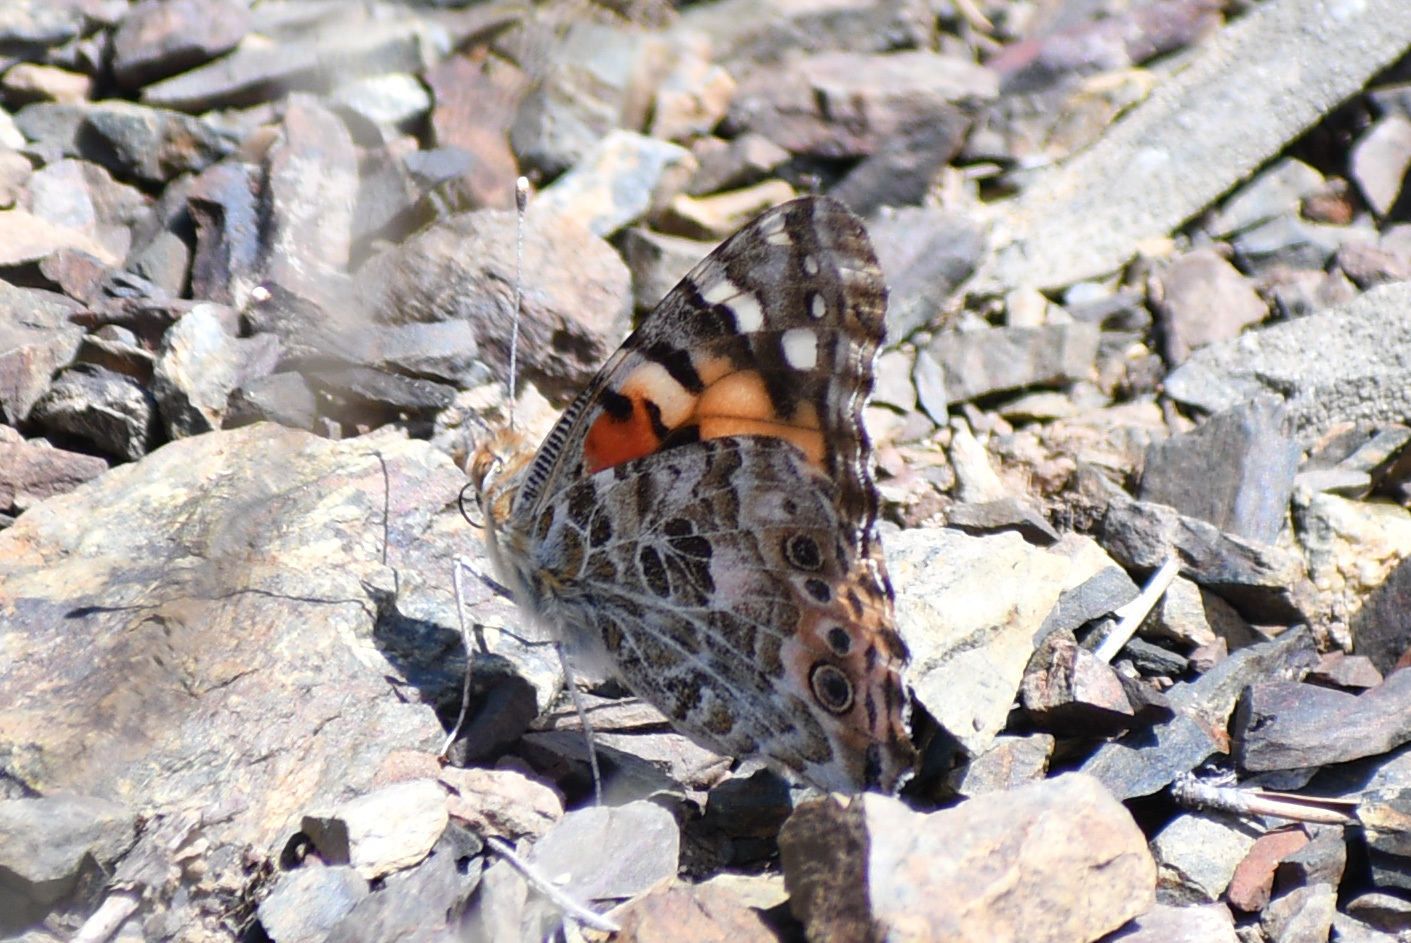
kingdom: Animalia
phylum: Arthropoda
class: Insecta
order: Lepidoptera
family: Nymphalidae
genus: Vanessa
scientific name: Vanessa cardui
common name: Painted lady
